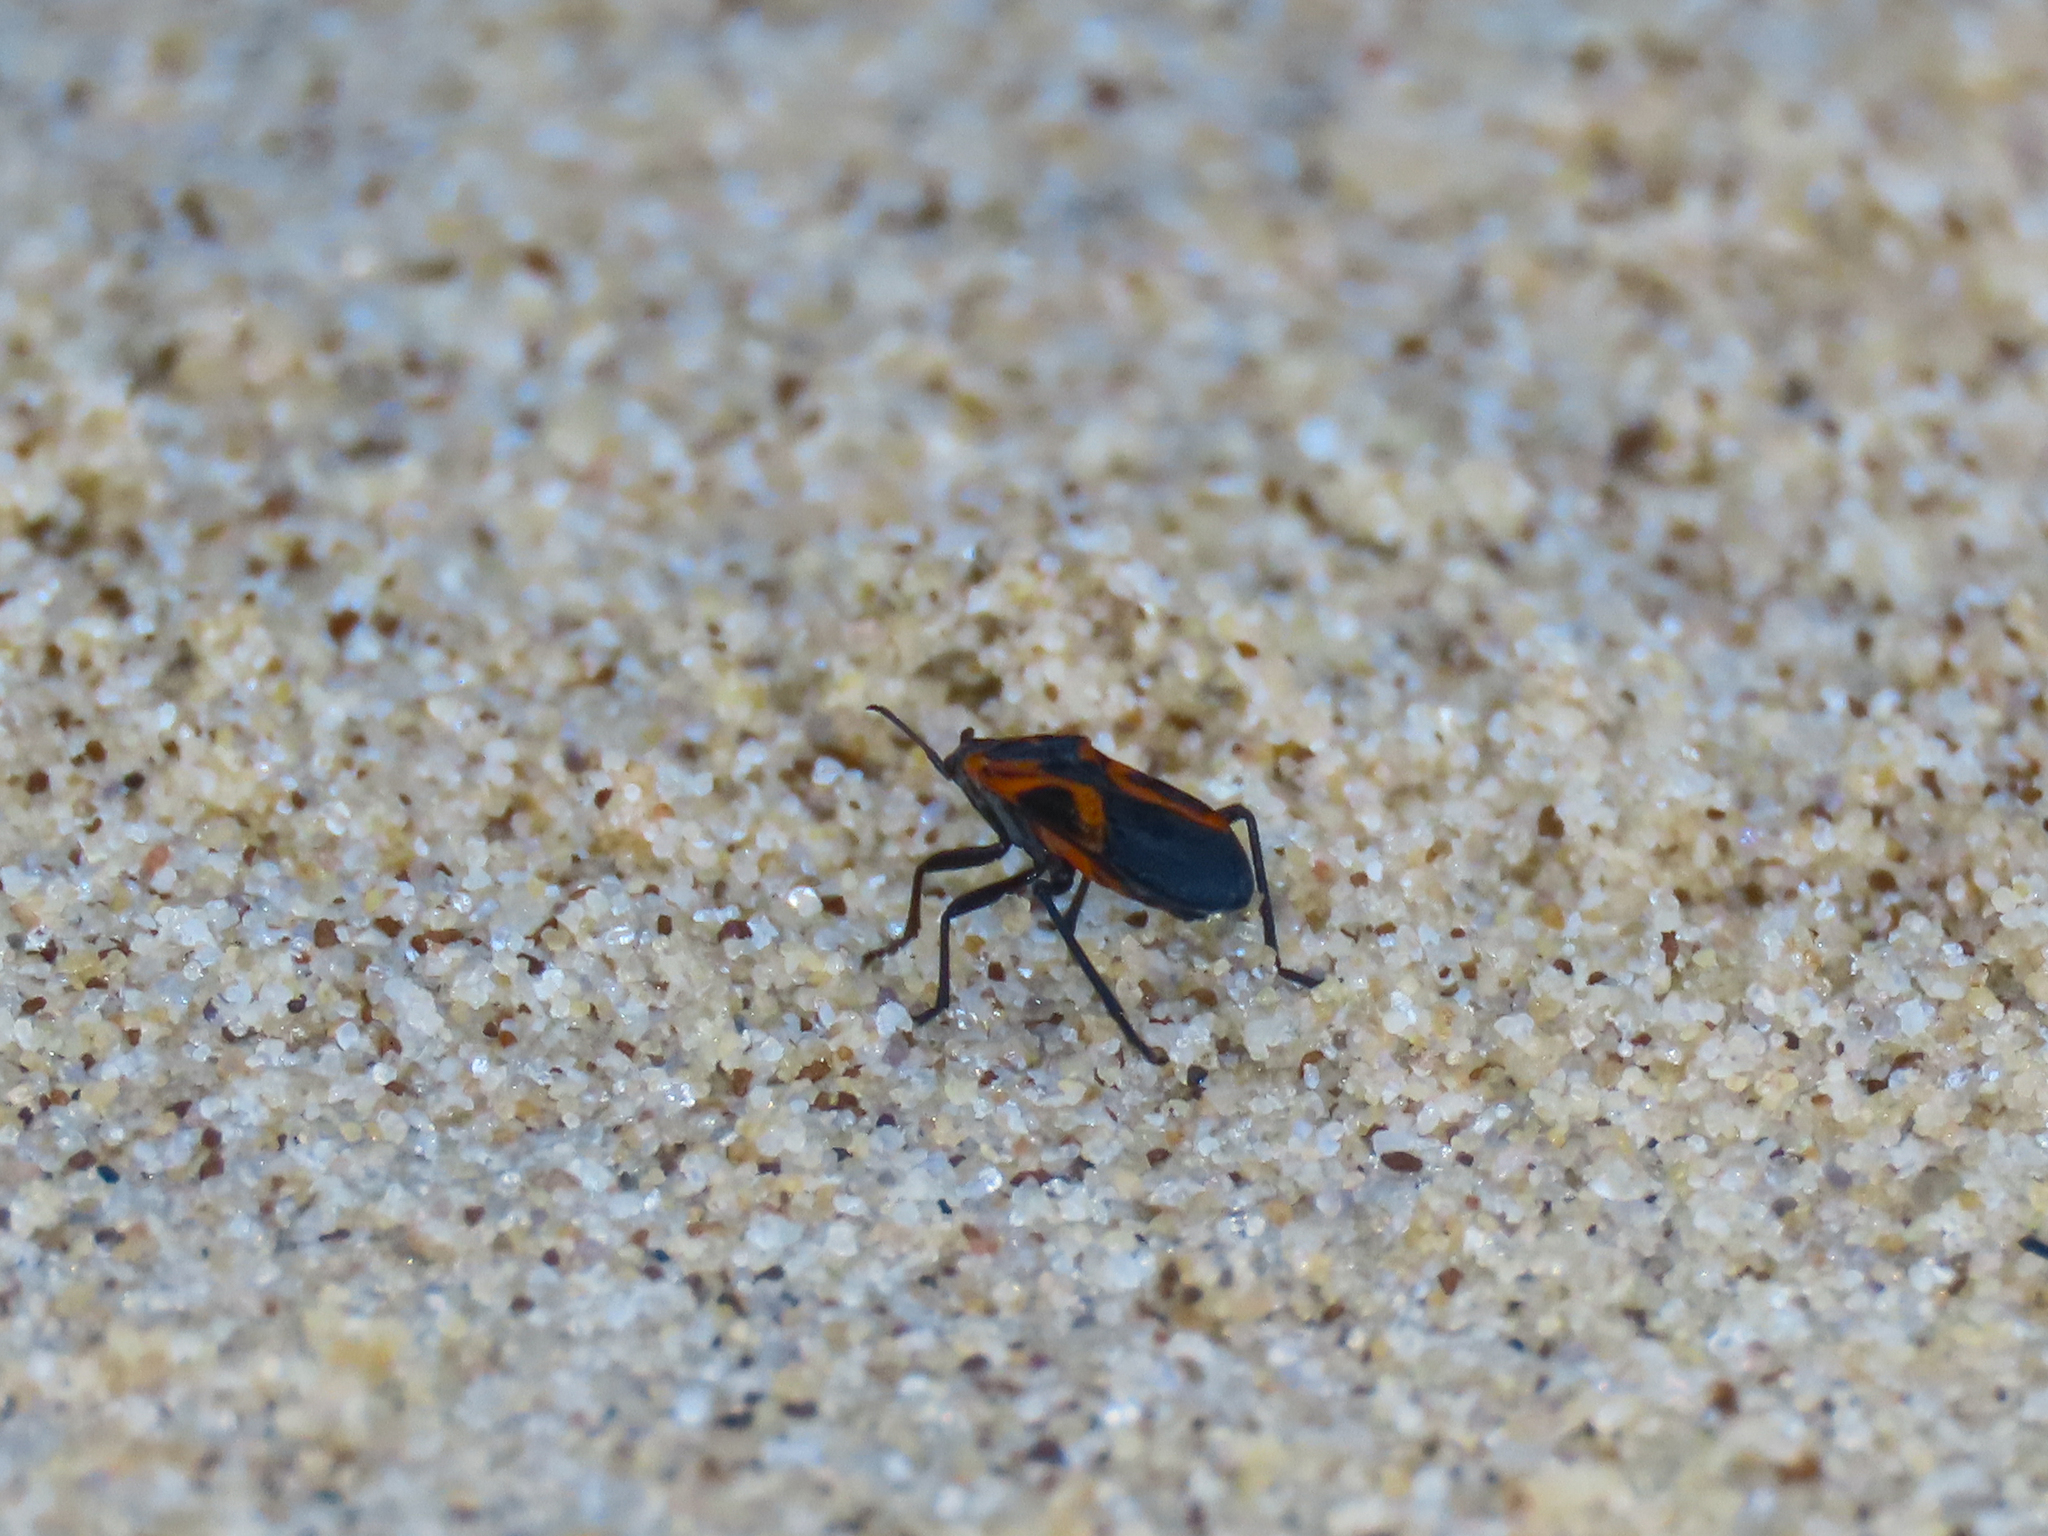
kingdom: Animalia
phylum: Arthropoda
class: Insecta
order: Hemiptera
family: Lygaeidae
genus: Lygaeus
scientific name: Lygaeus turcicus
